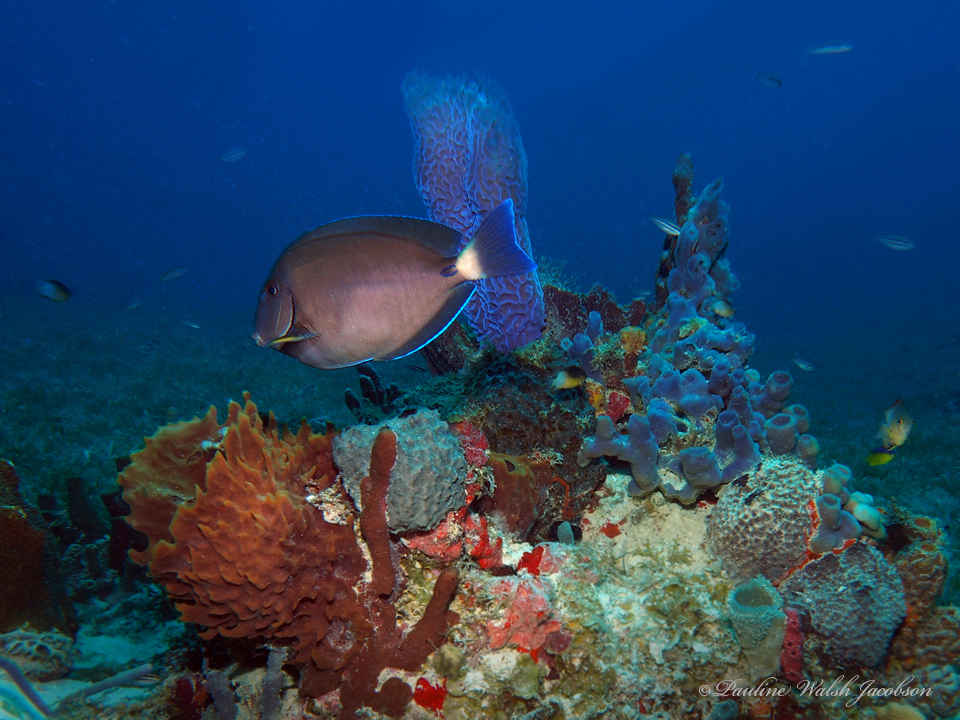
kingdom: Animalia
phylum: Chordata
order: Perciformes
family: Acanthuridae
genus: Acanthurus
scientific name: Acanthurus chirurgus
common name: Doctorfish
